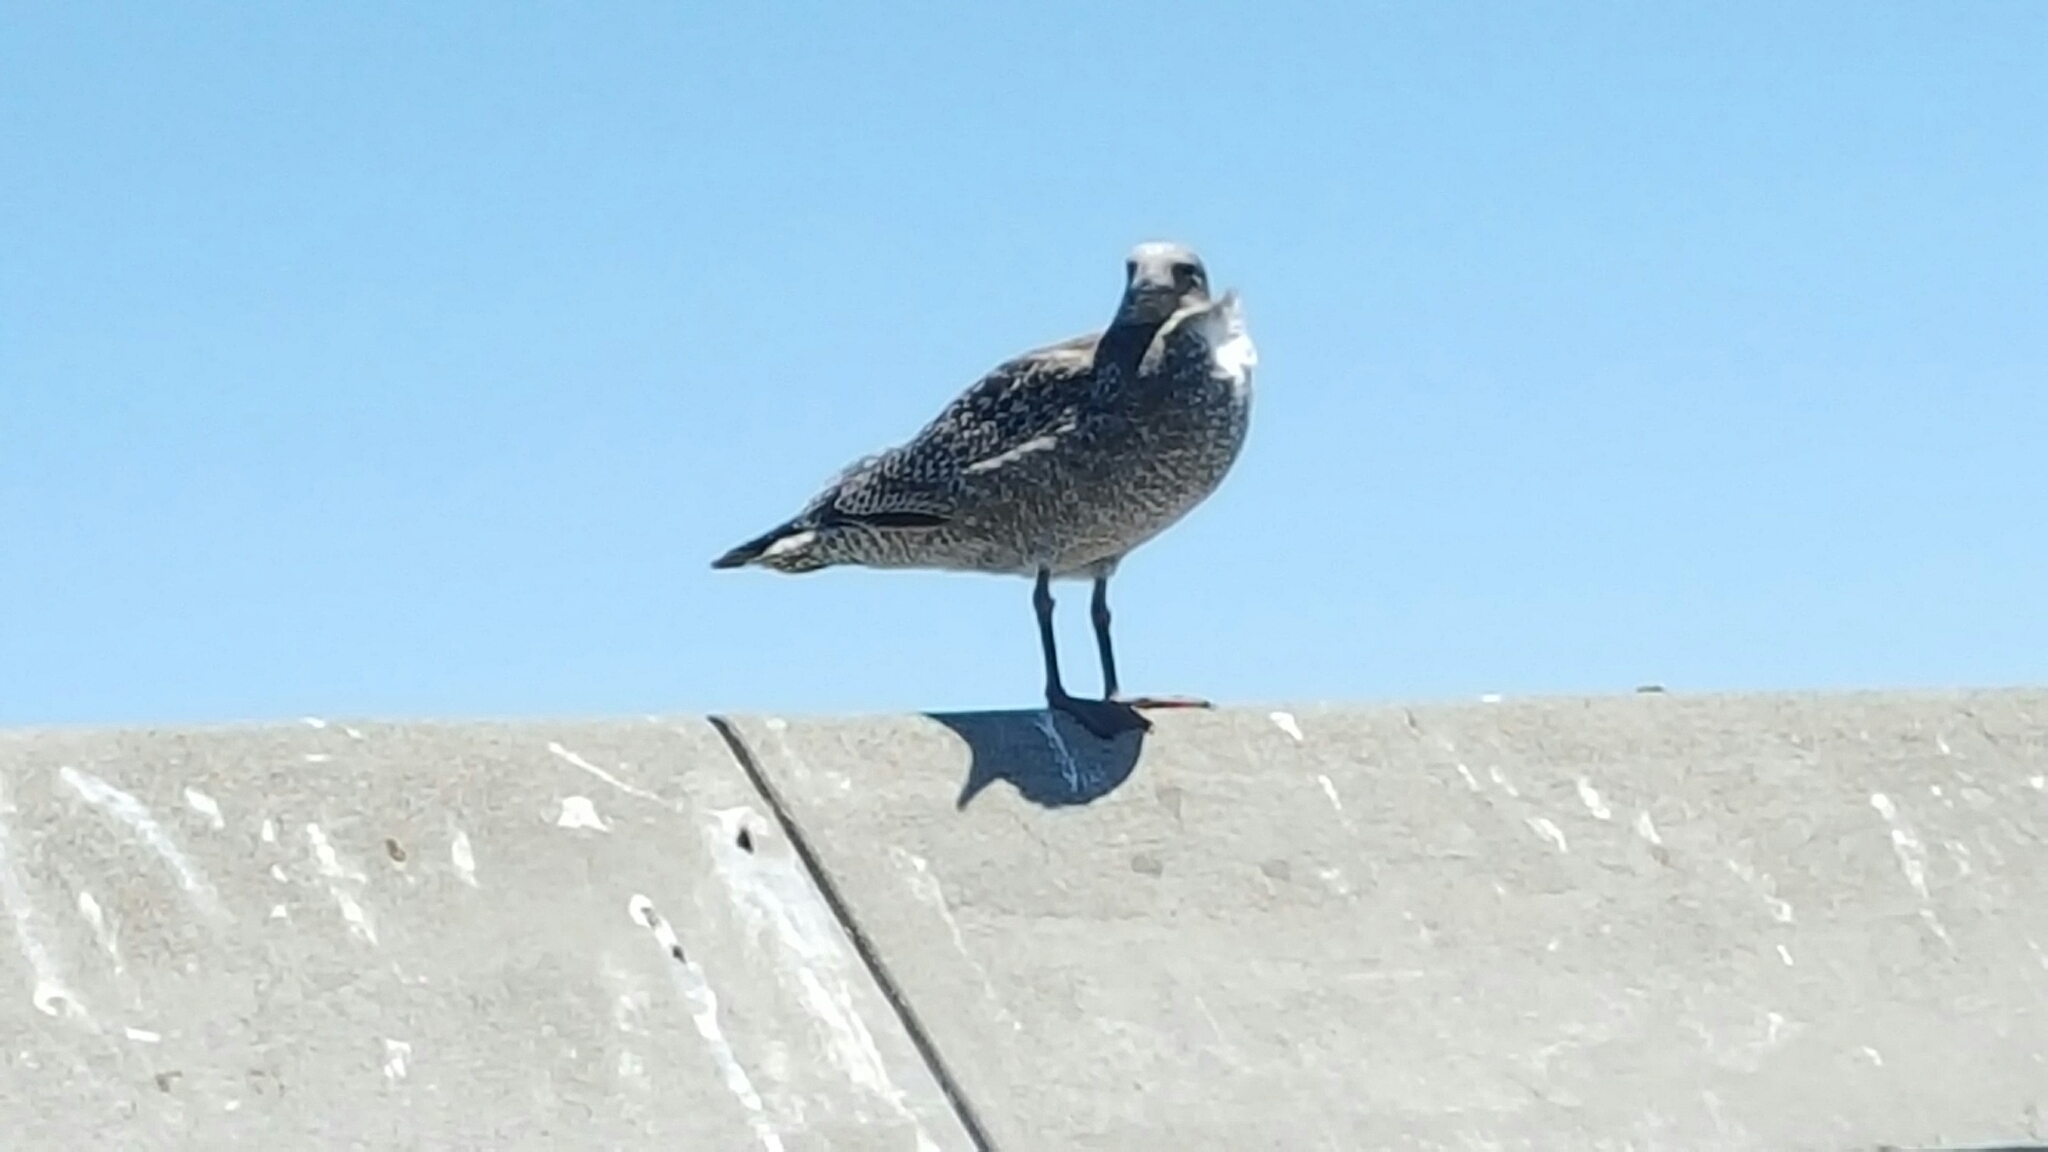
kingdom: Animalia
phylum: Chordata
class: Aves
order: Charadriiformes
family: Laridae
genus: Larus
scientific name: Larus occidentalis
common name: Western gull
